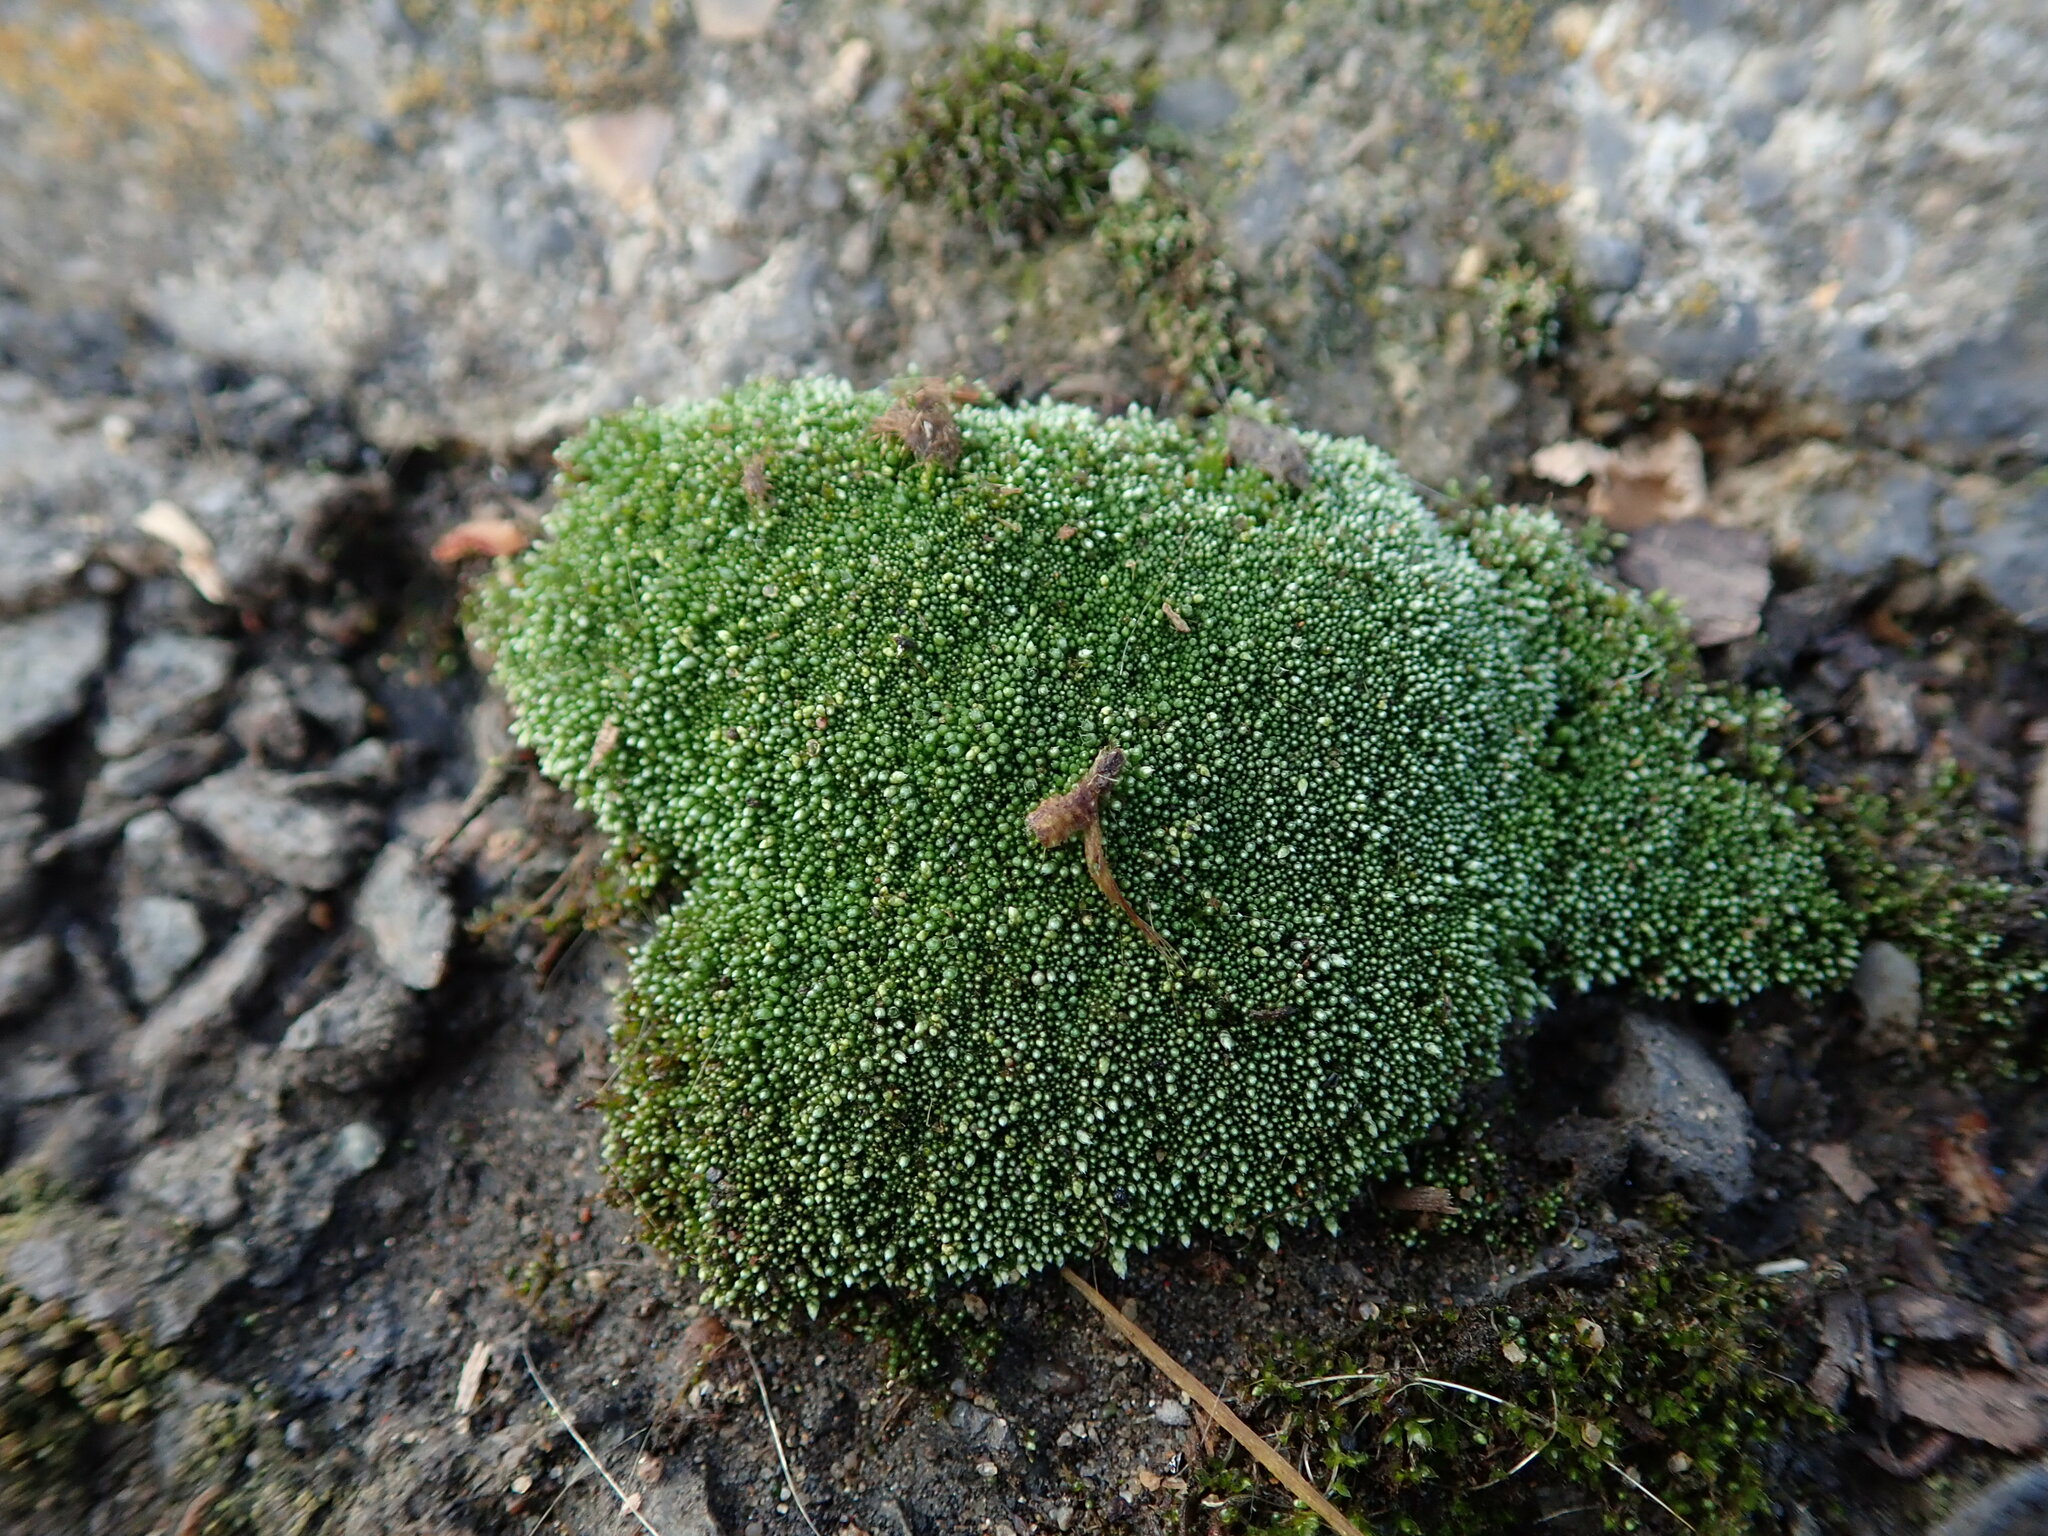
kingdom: Plantae
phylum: Bryophyta
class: Bryopsida
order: Bryales
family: Bryaceae
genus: Bryum
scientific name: Bryum argenteum
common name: Silver-moss
